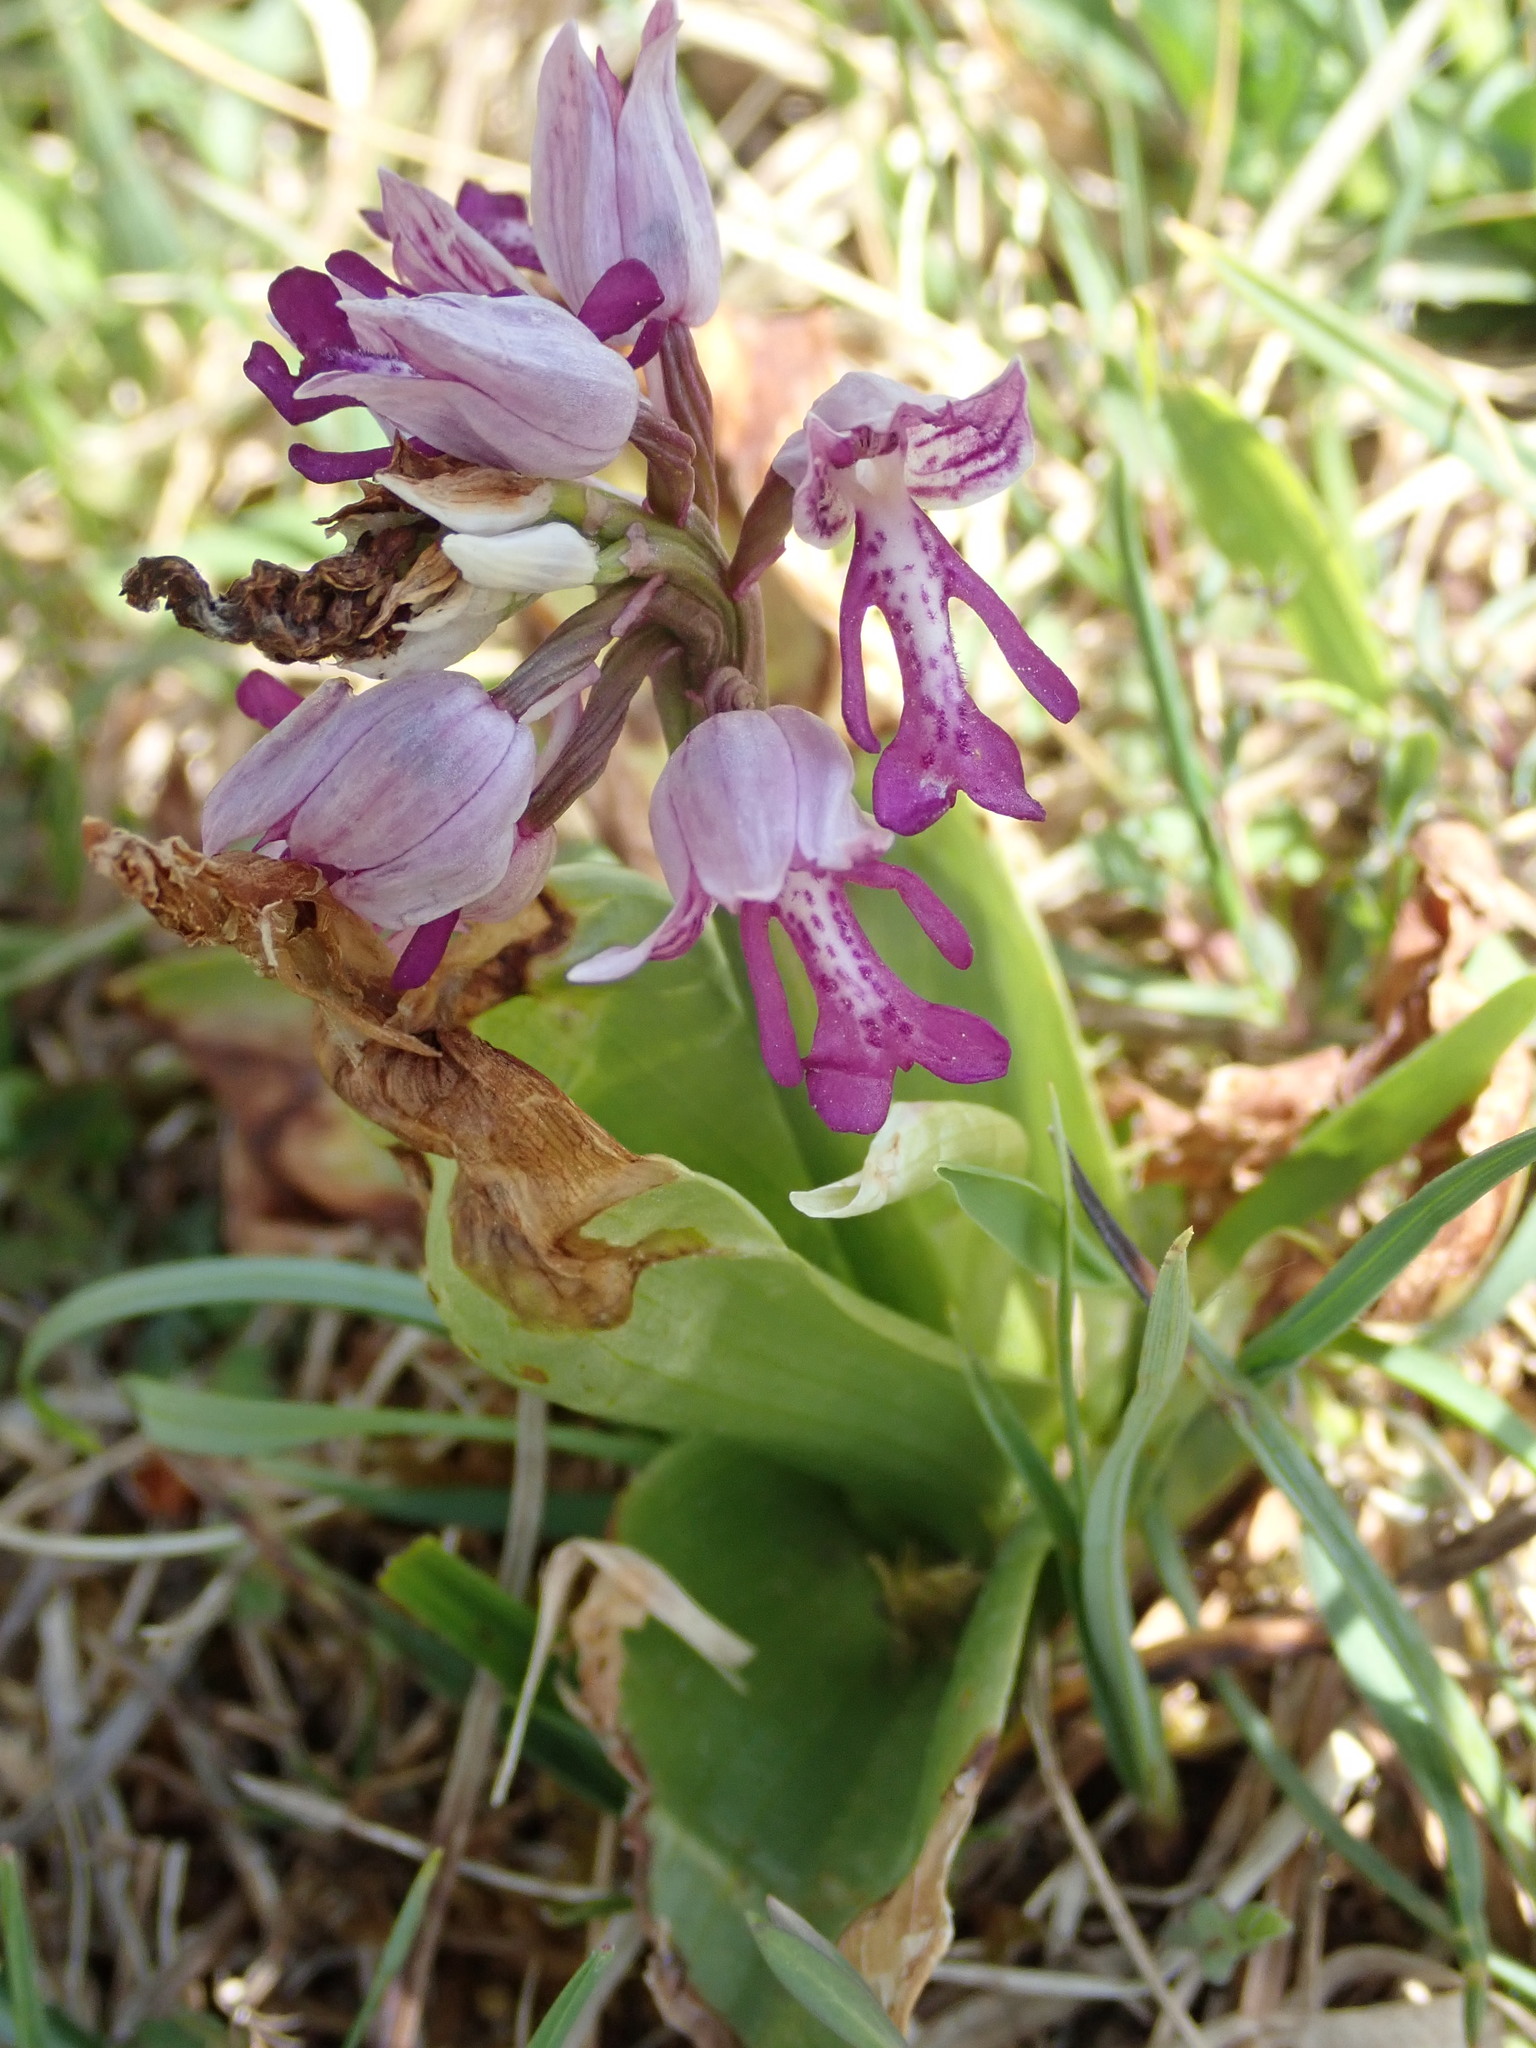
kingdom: Plantae
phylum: Tracheophyta
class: Liliopsida
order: Asparagales
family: Orchidaceae
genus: Orchis
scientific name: Orchis militaris
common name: Military orchid
